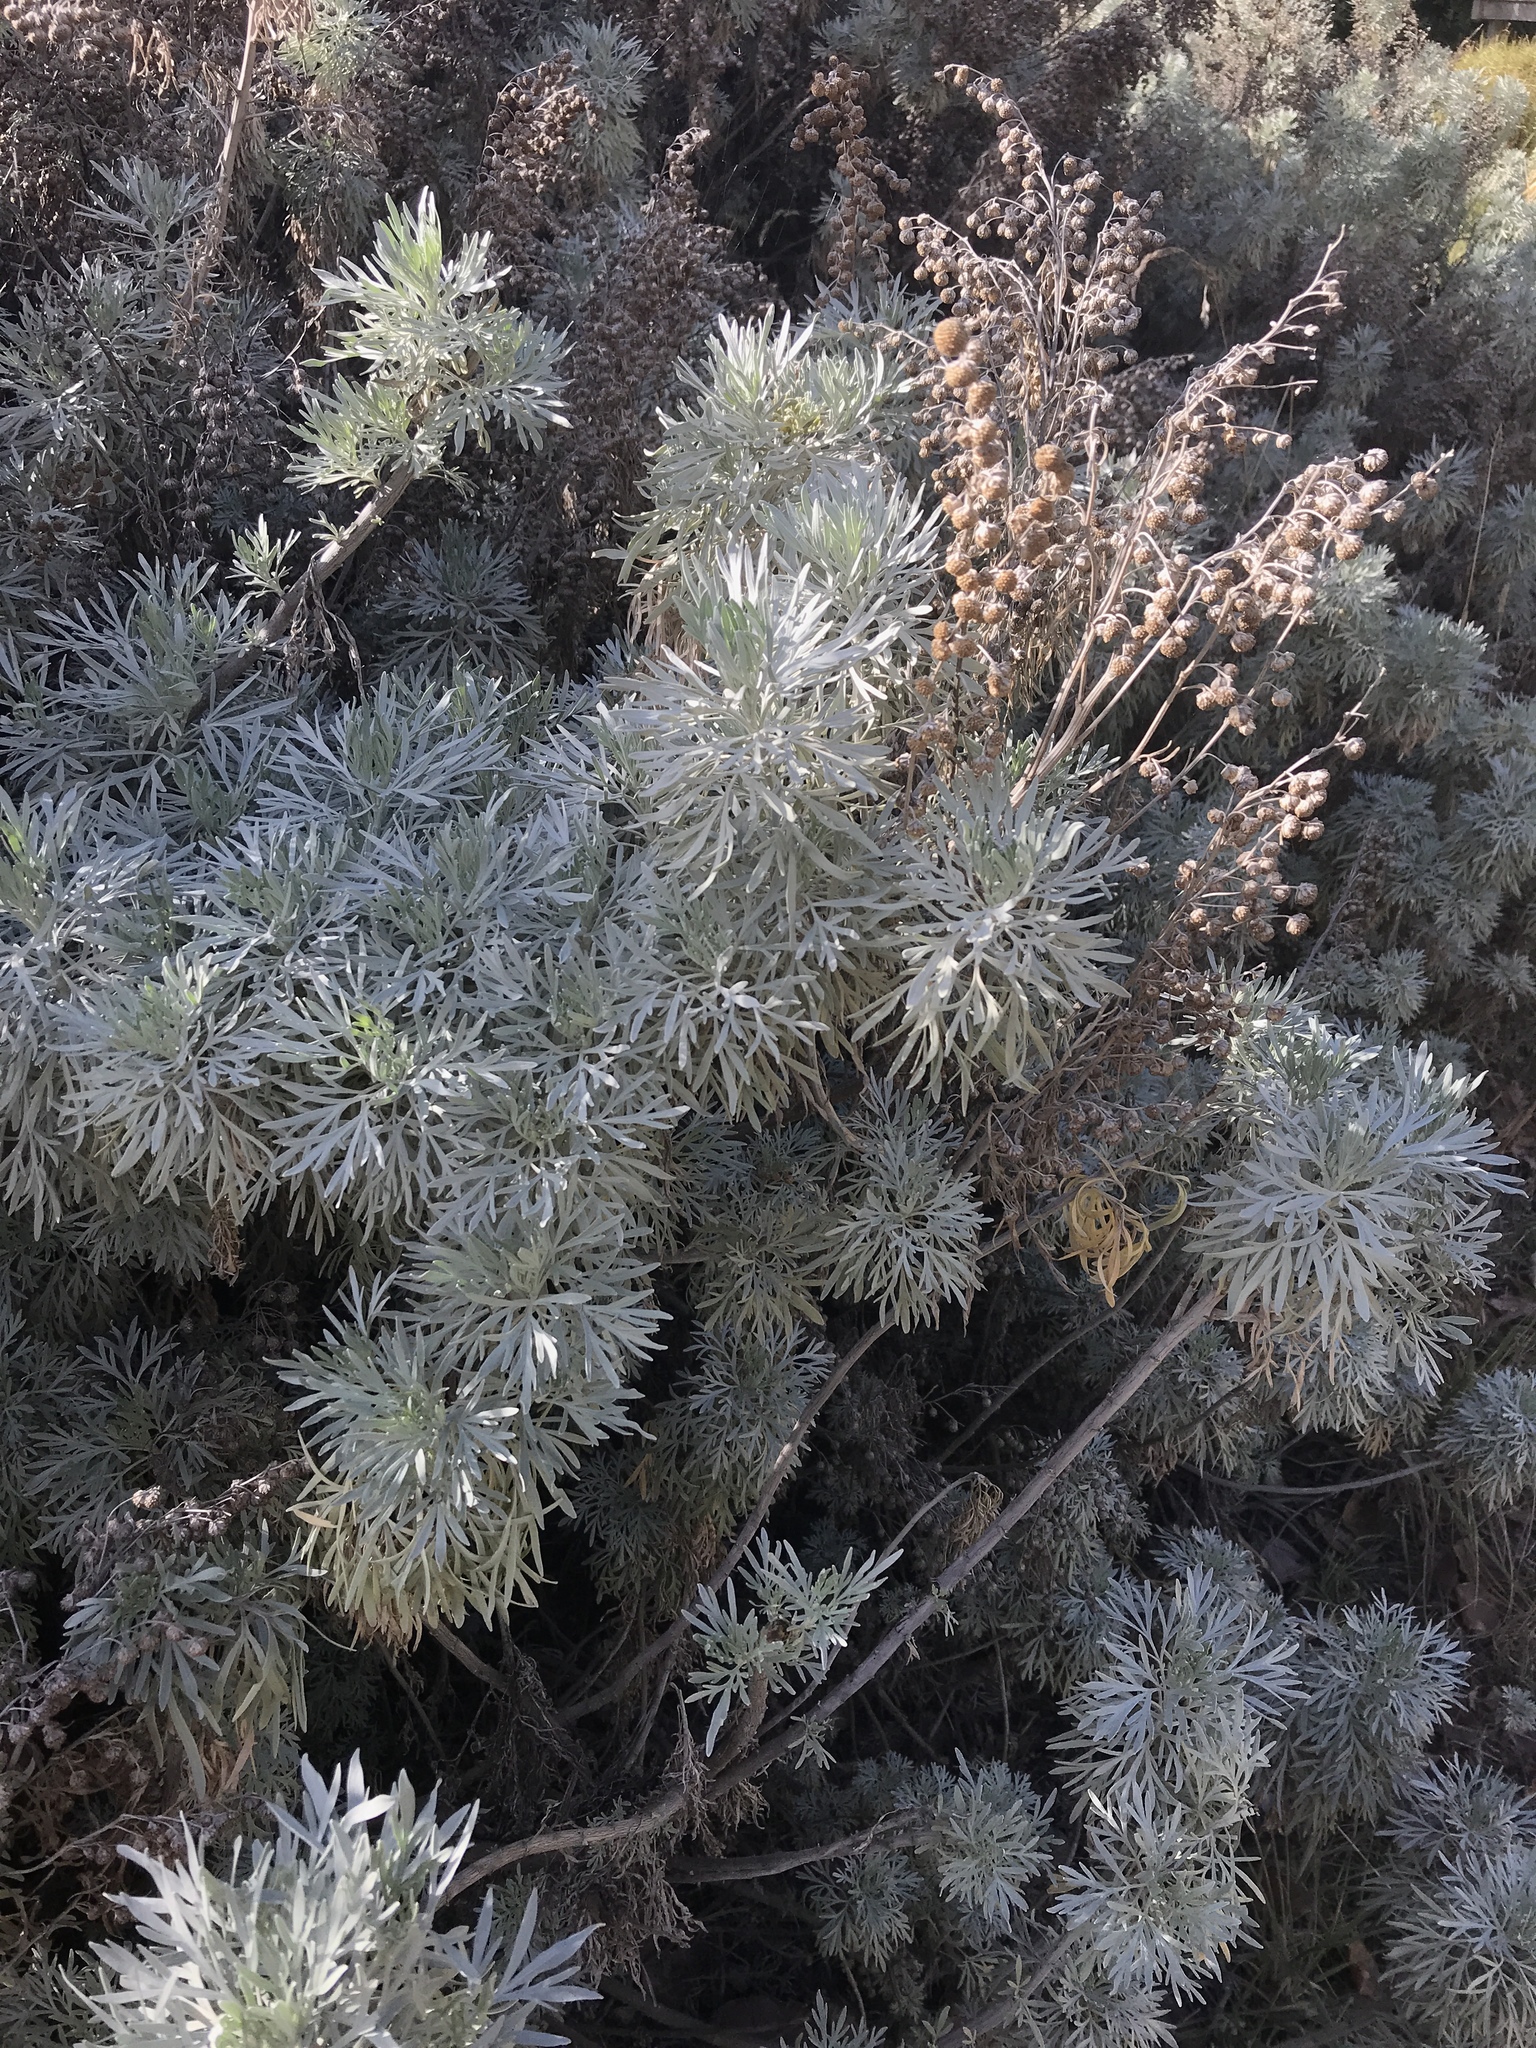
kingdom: Plantae
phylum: Tracheophyta
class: Magnoliopsida
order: Asterales
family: Asteraceae
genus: Artemisia
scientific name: Artemisia arborescens
